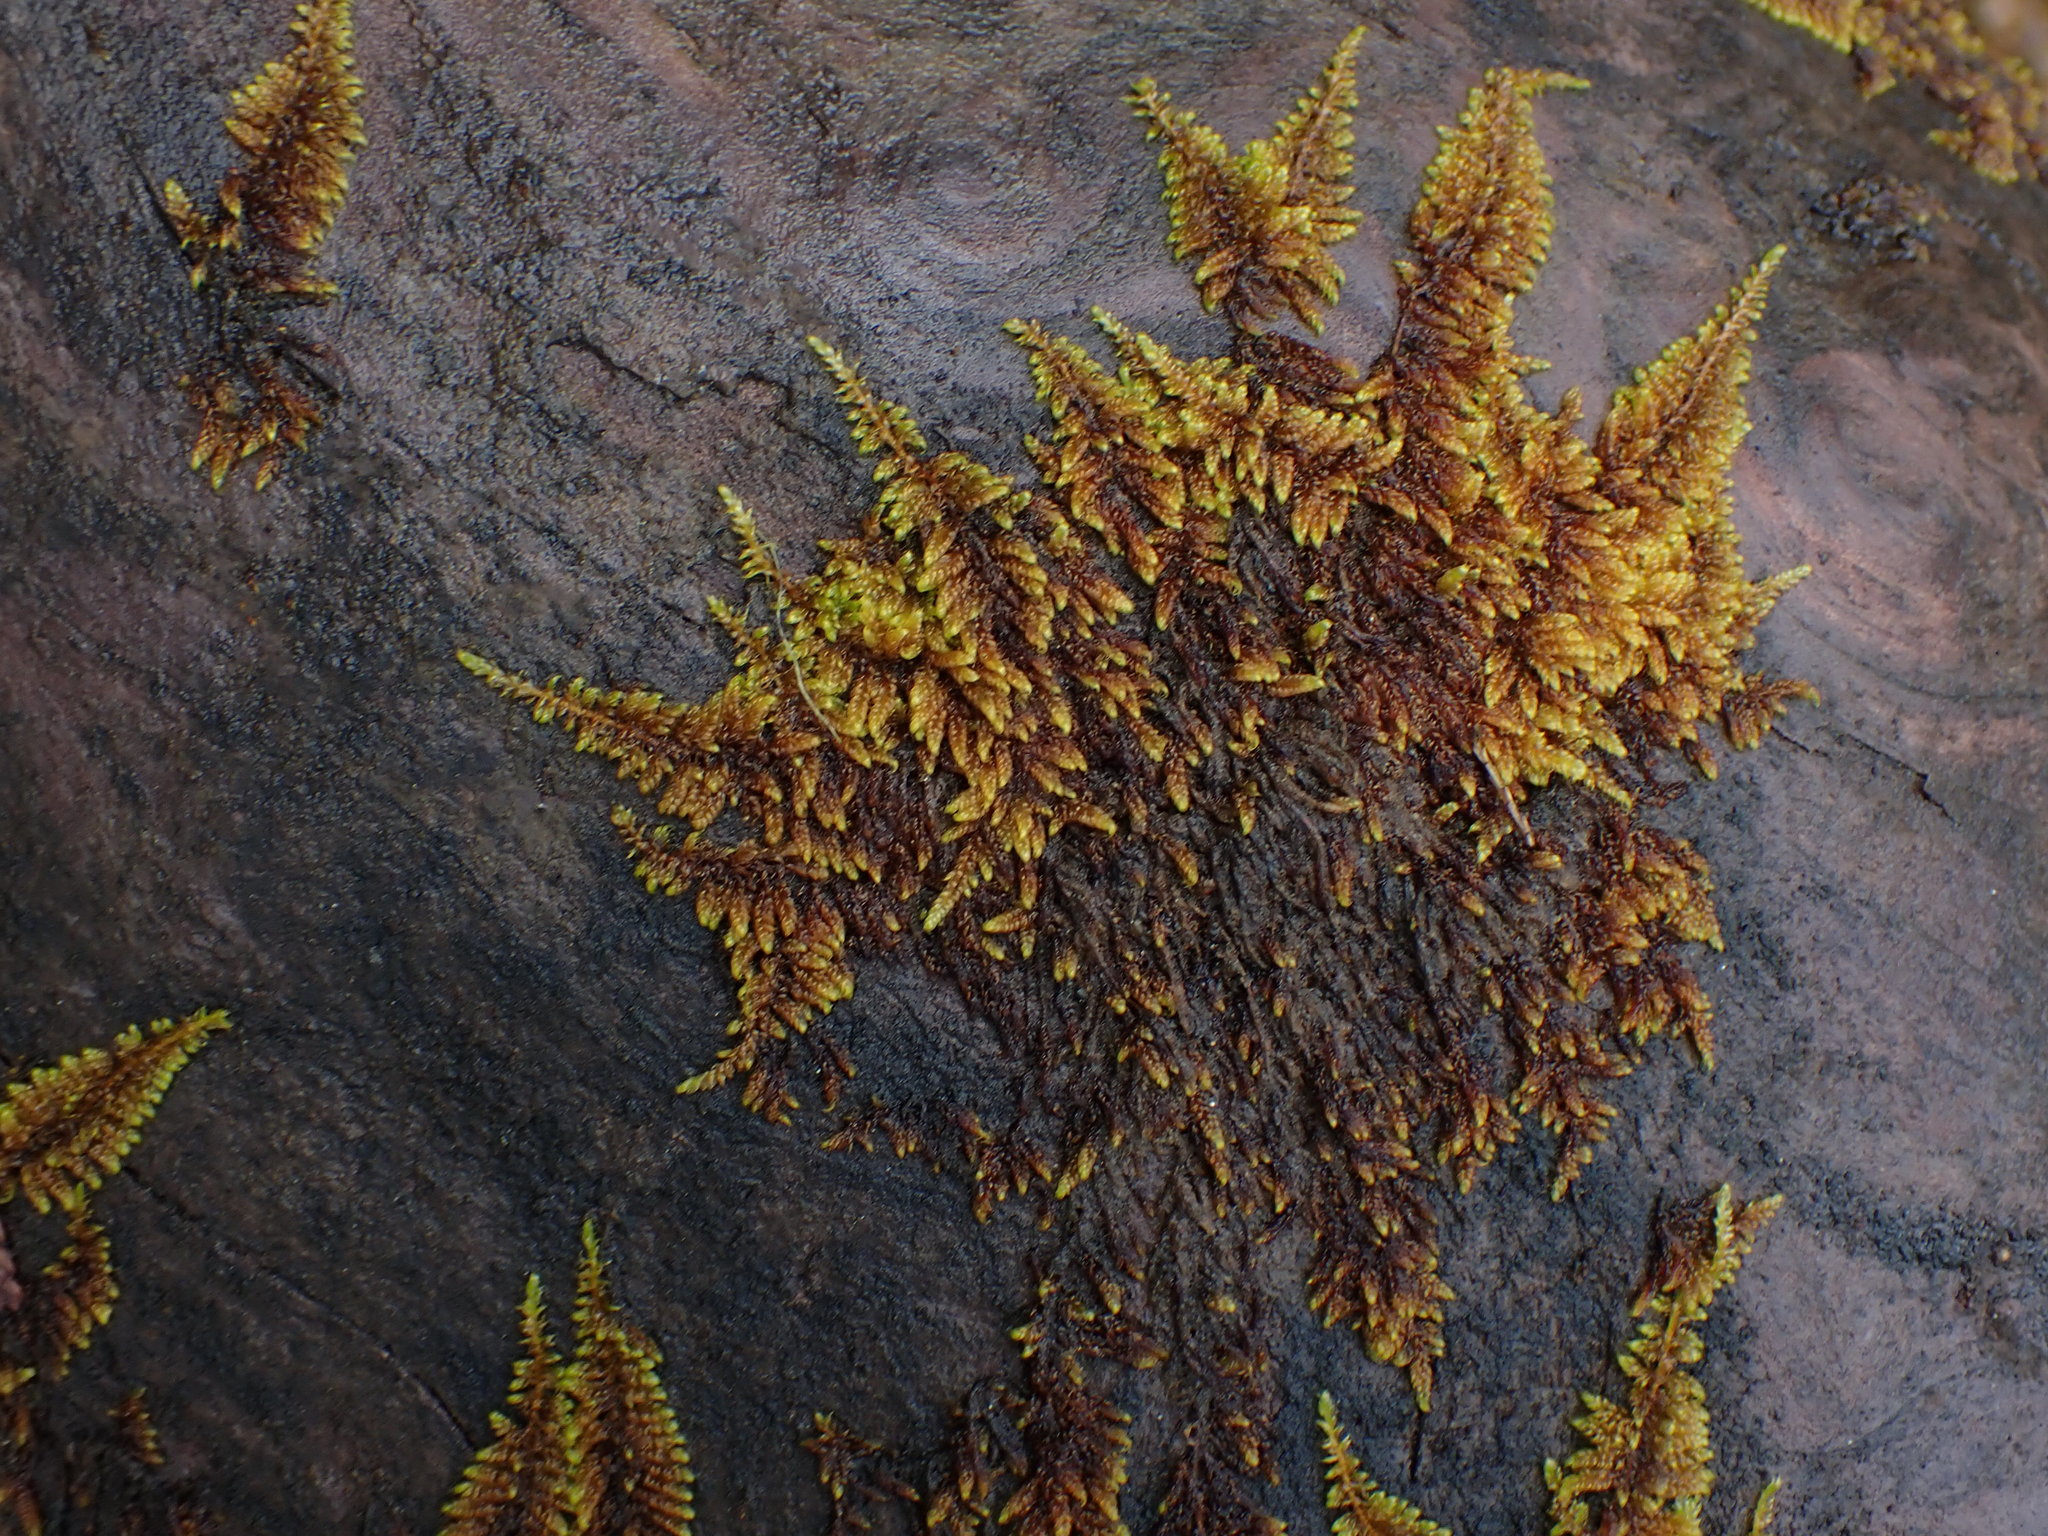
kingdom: Plantae
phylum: Bryophyta
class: Bryopsida
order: Hypnales
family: Pylaisiaceae
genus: Calliergonellopsis
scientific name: Calliergonellopsis dieckii
